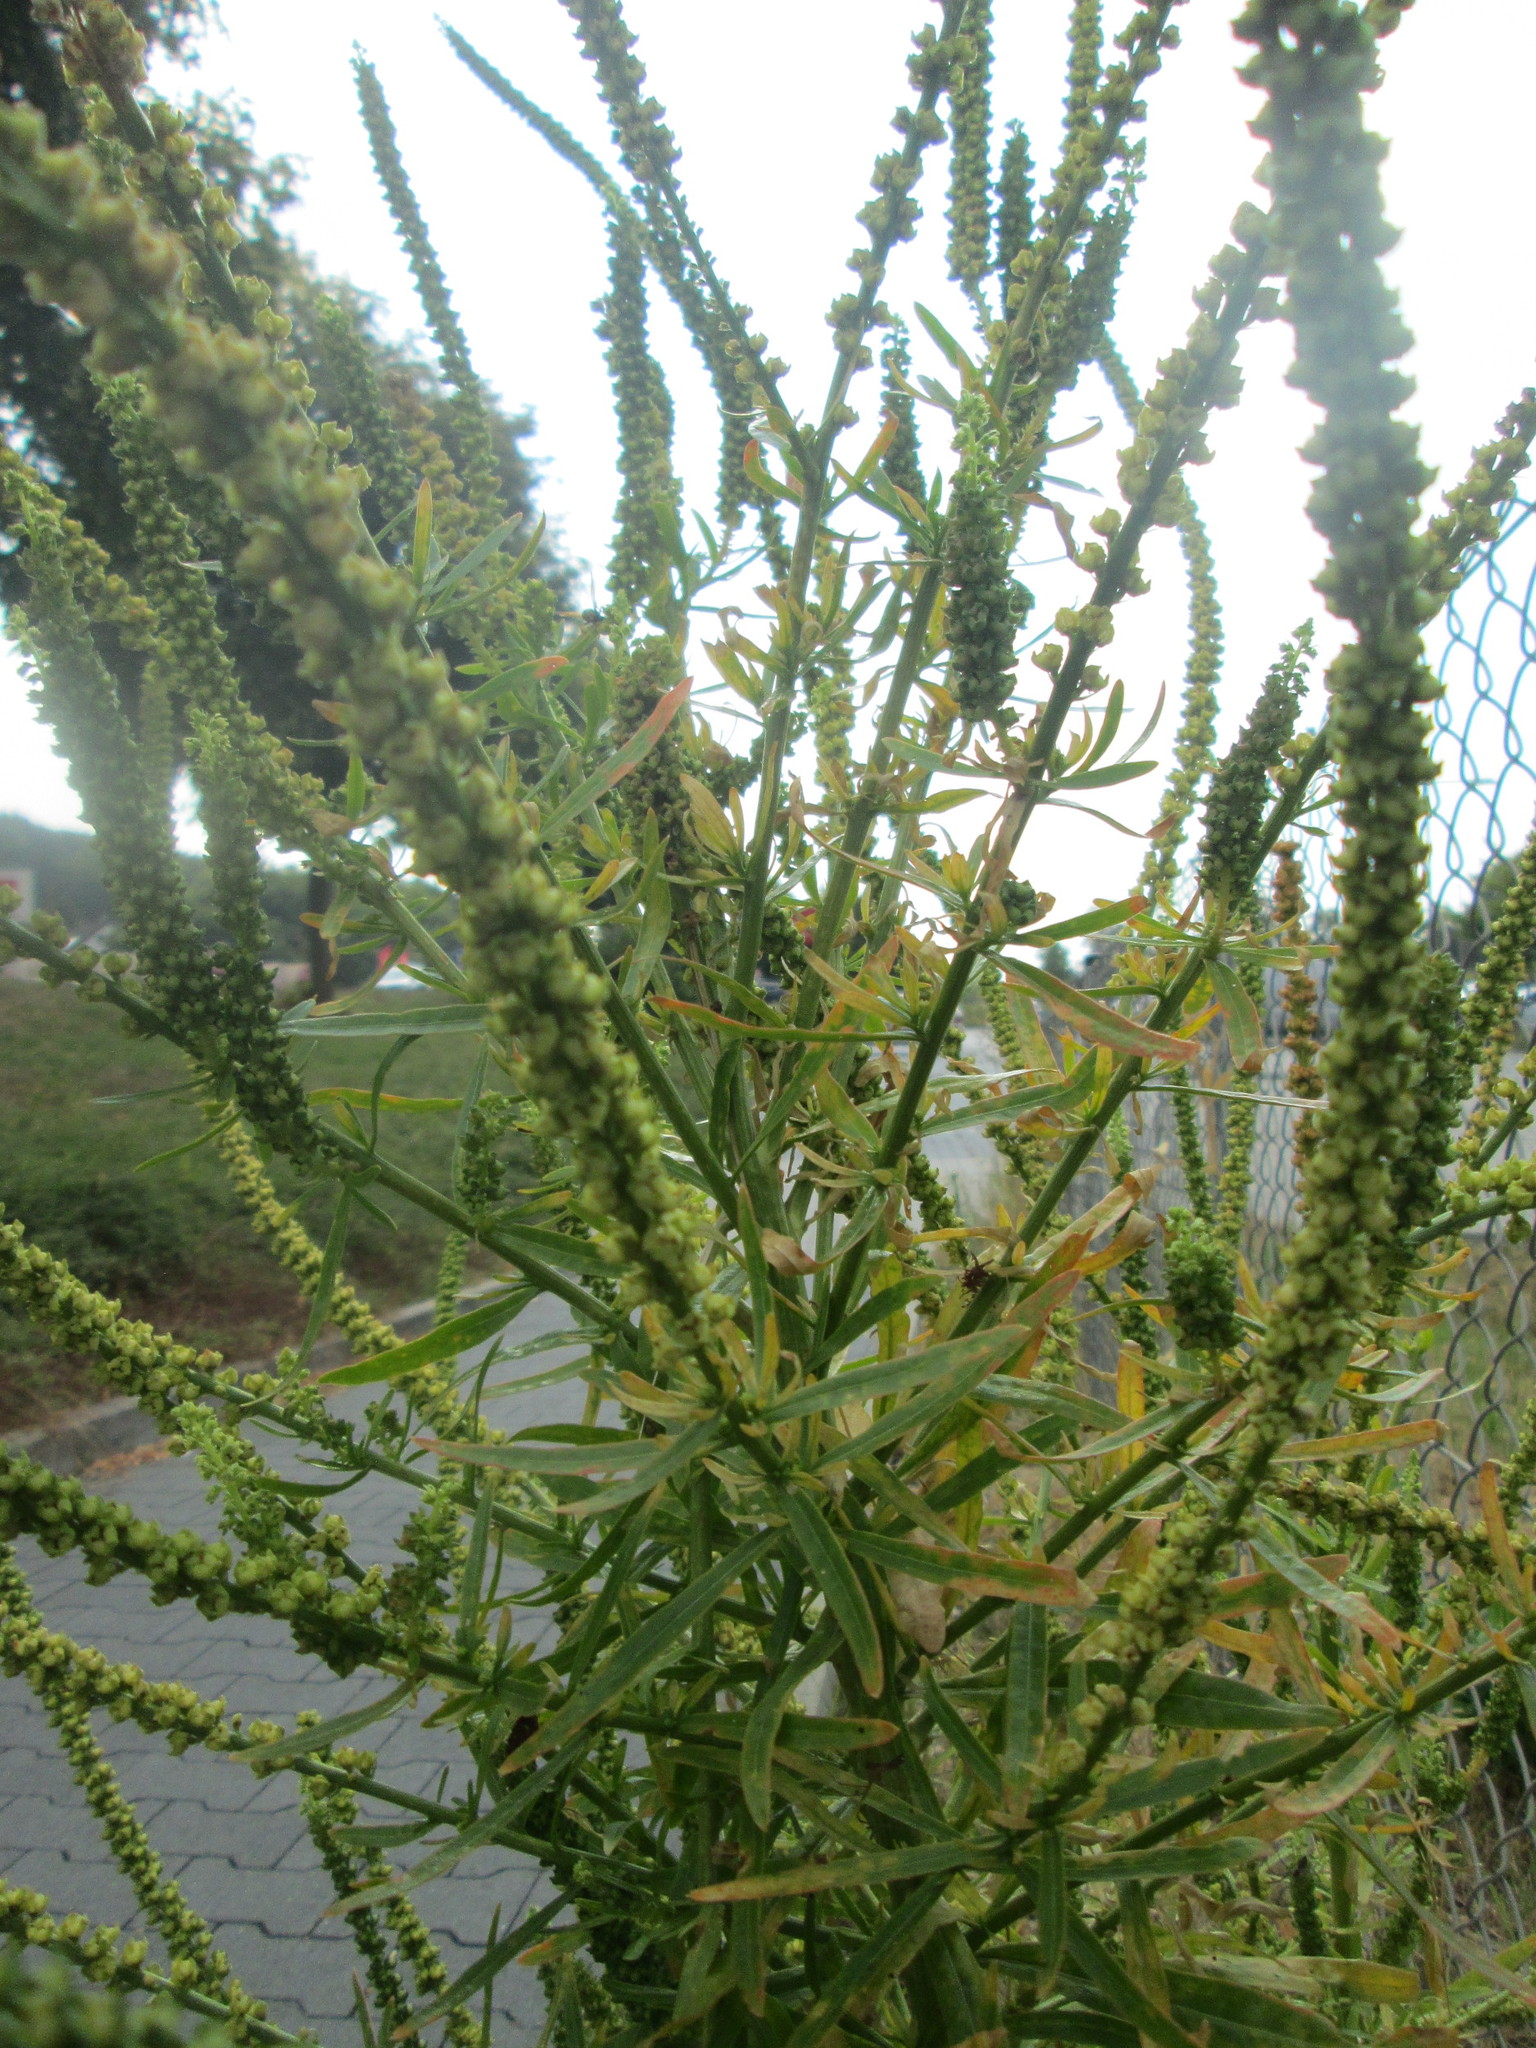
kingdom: Plantae
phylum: Tracheophyta
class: Magnoliopsida
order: Brassicales
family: Resedaceae
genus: Reseda
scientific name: Reseda luteola
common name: Weld
